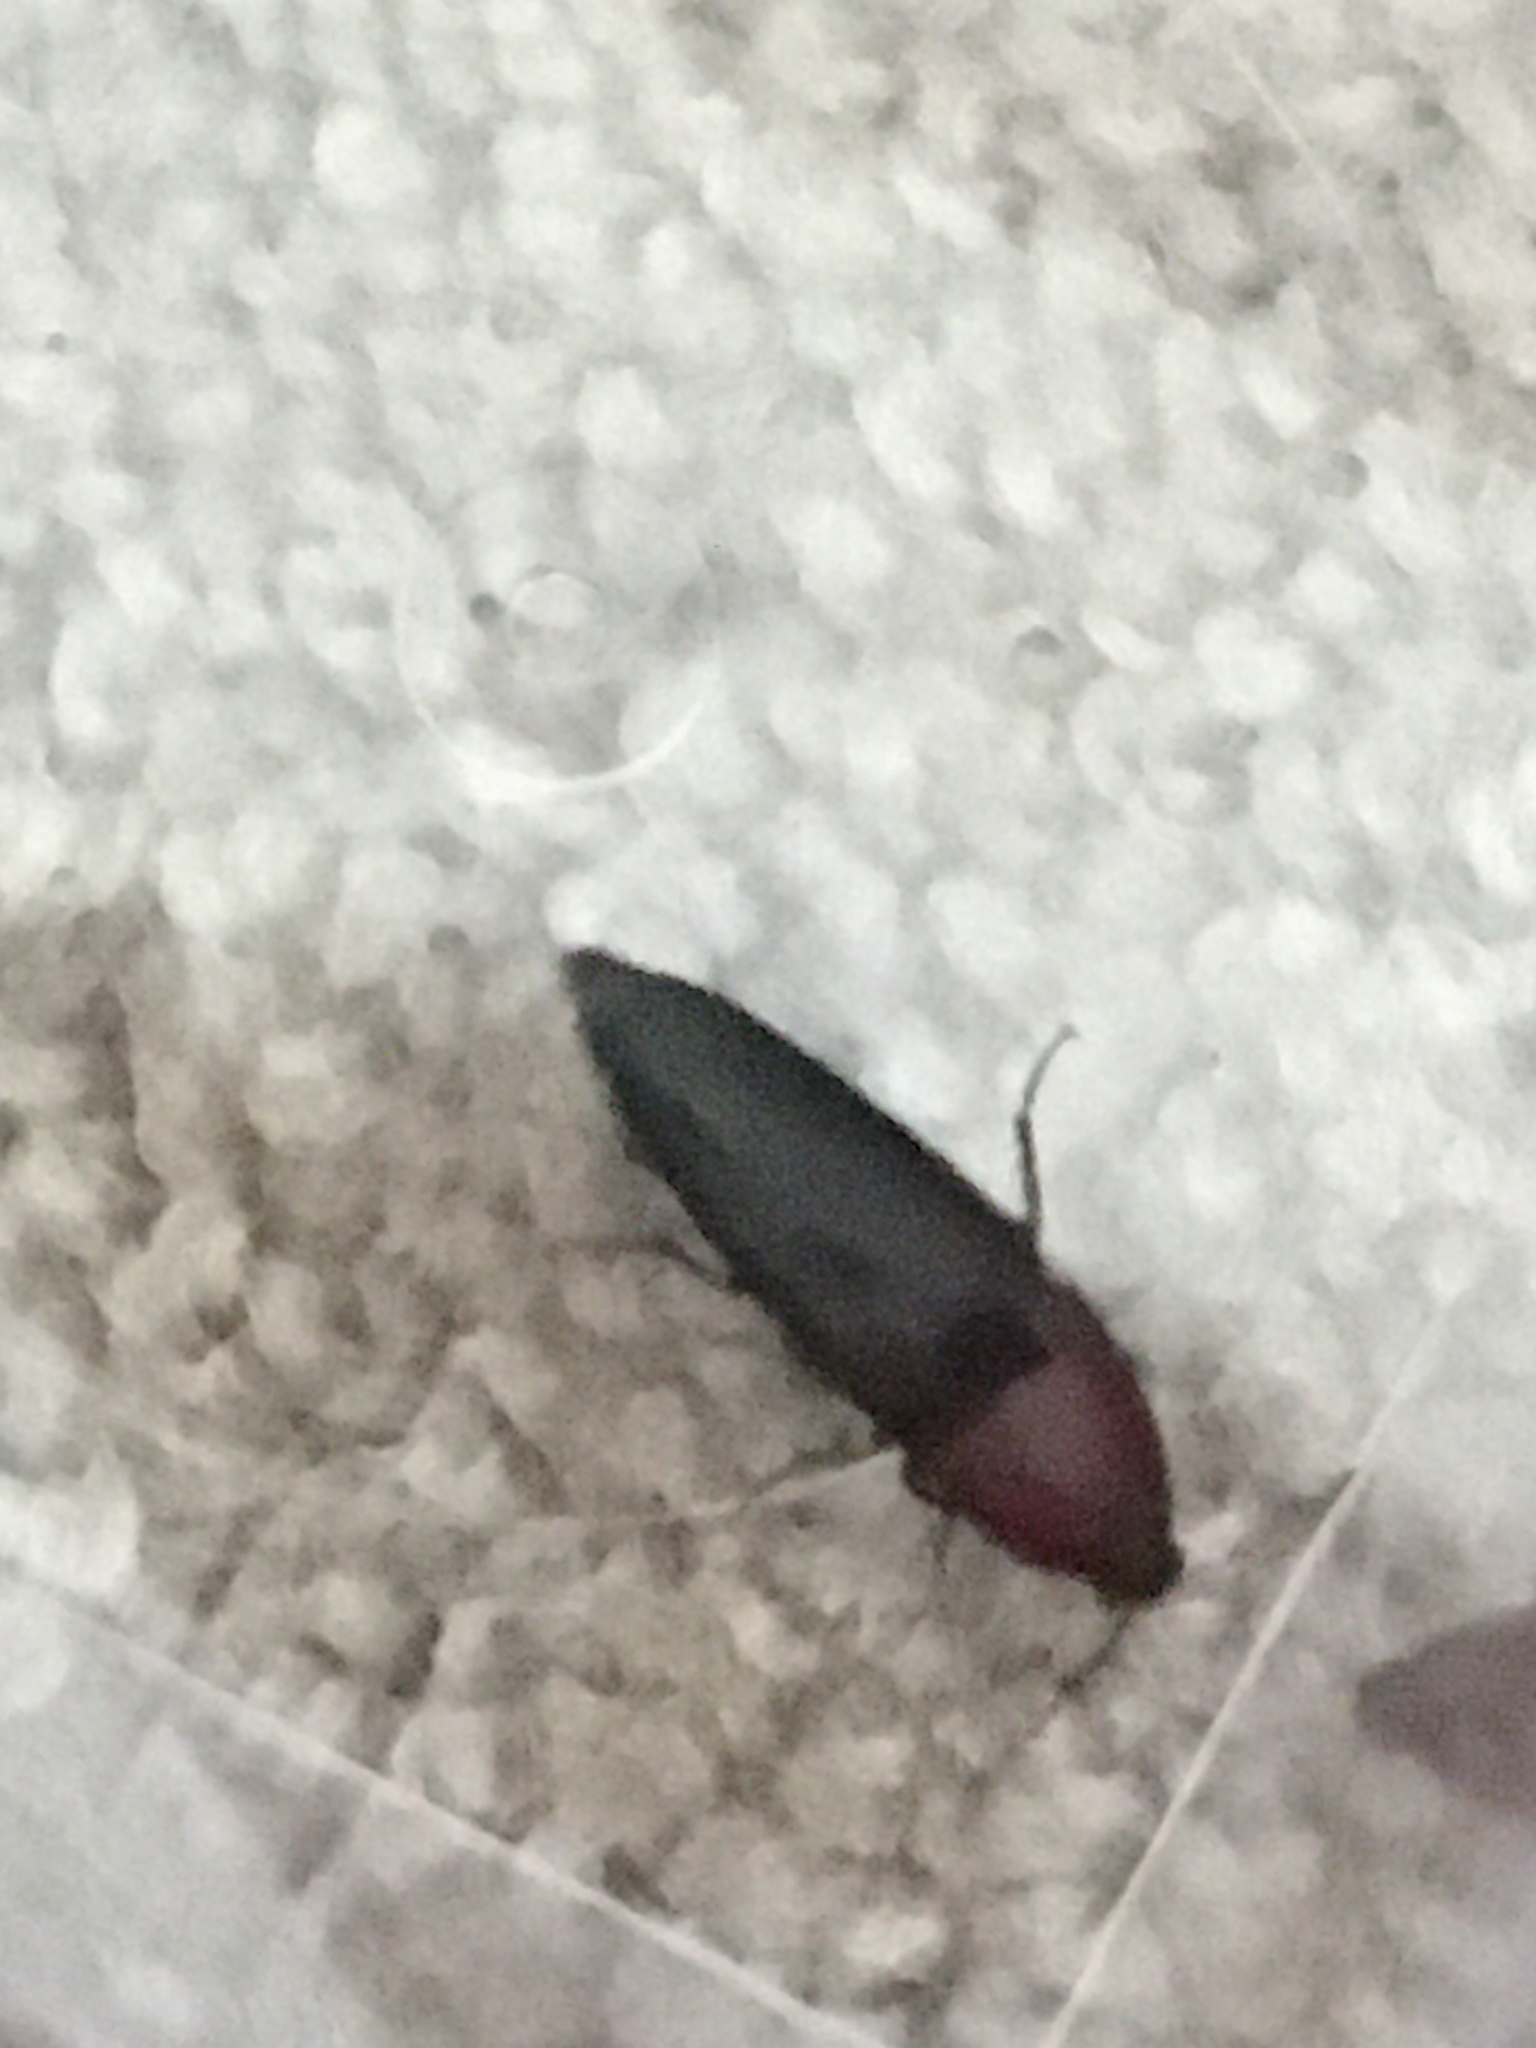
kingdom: Animalia
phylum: Arthropoda
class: Insecta
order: Coleoptera
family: Elateridae
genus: Parallelostethus
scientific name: Parallelostethus attenuatus
